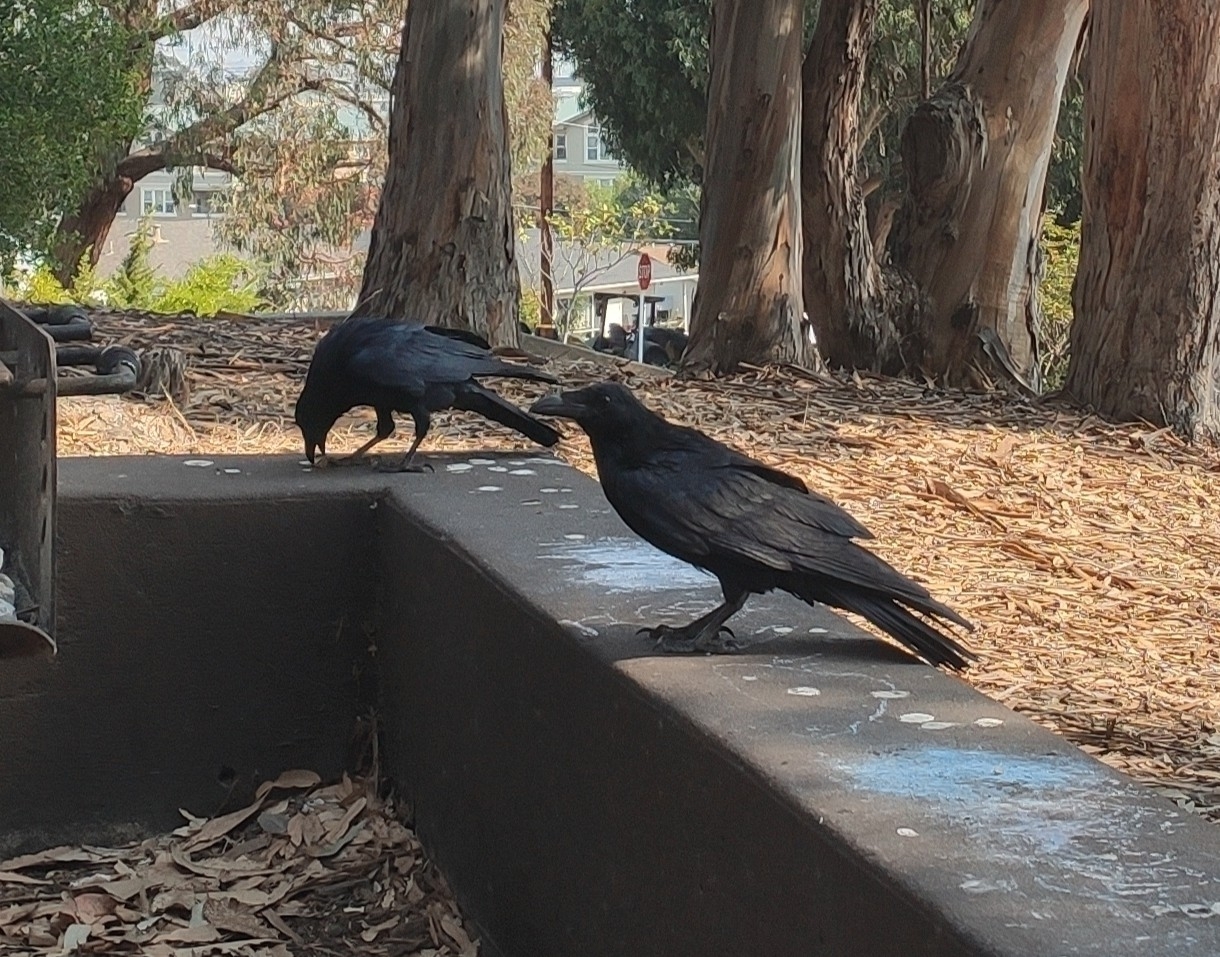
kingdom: Animalia
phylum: Chordata
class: Aves
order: Passeriformes
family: Corvidae
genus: Corvus
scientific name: Corvus corax
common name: Common raven
